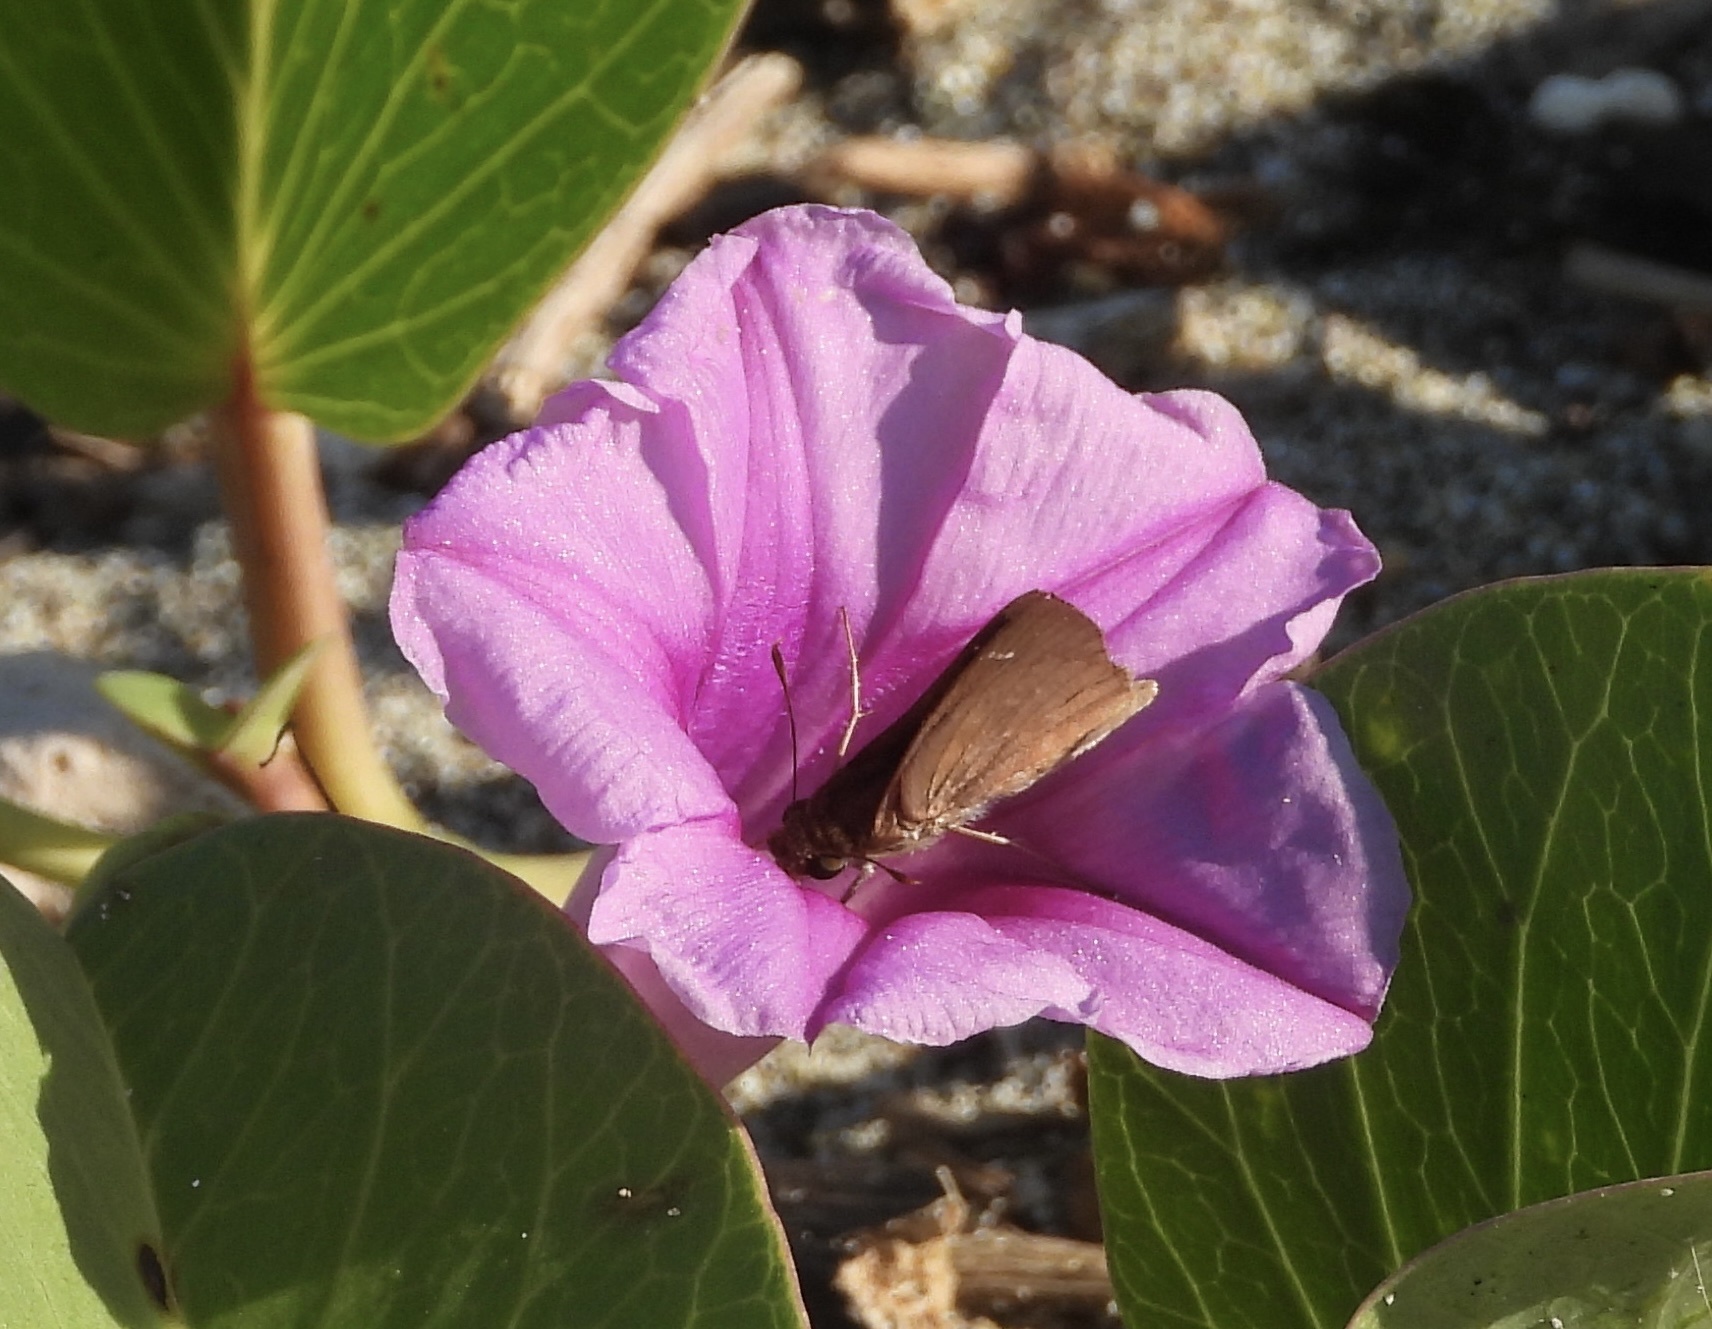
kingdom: Animalia
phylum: Arthropoda
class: Insecta
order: Lepidoptera
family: Hesperiidae
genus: Lerema
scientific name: Lerema
